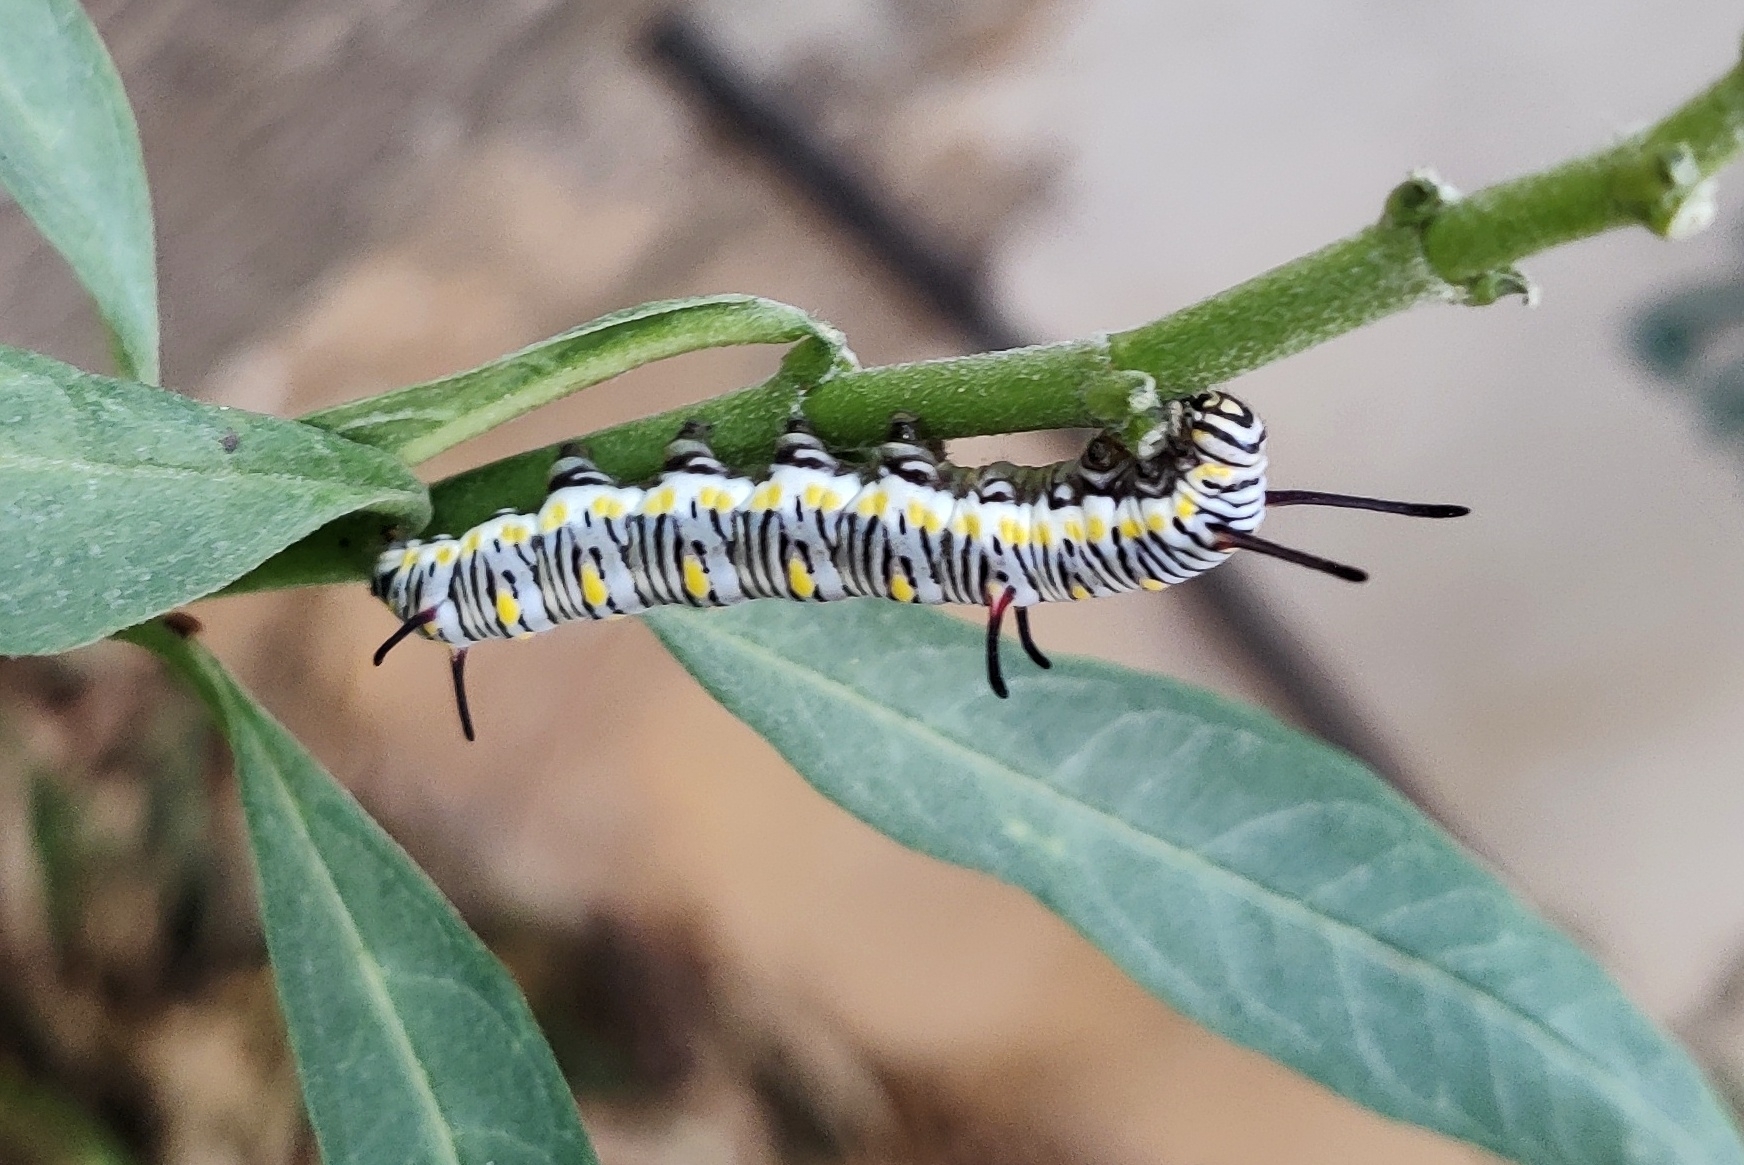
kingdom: Animalia
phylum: Arthropoda
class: Insecta
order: Lepidoptera
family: Nymphalidae
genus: Danaus
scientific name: Danaus chrysippus
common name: Plain tiger
